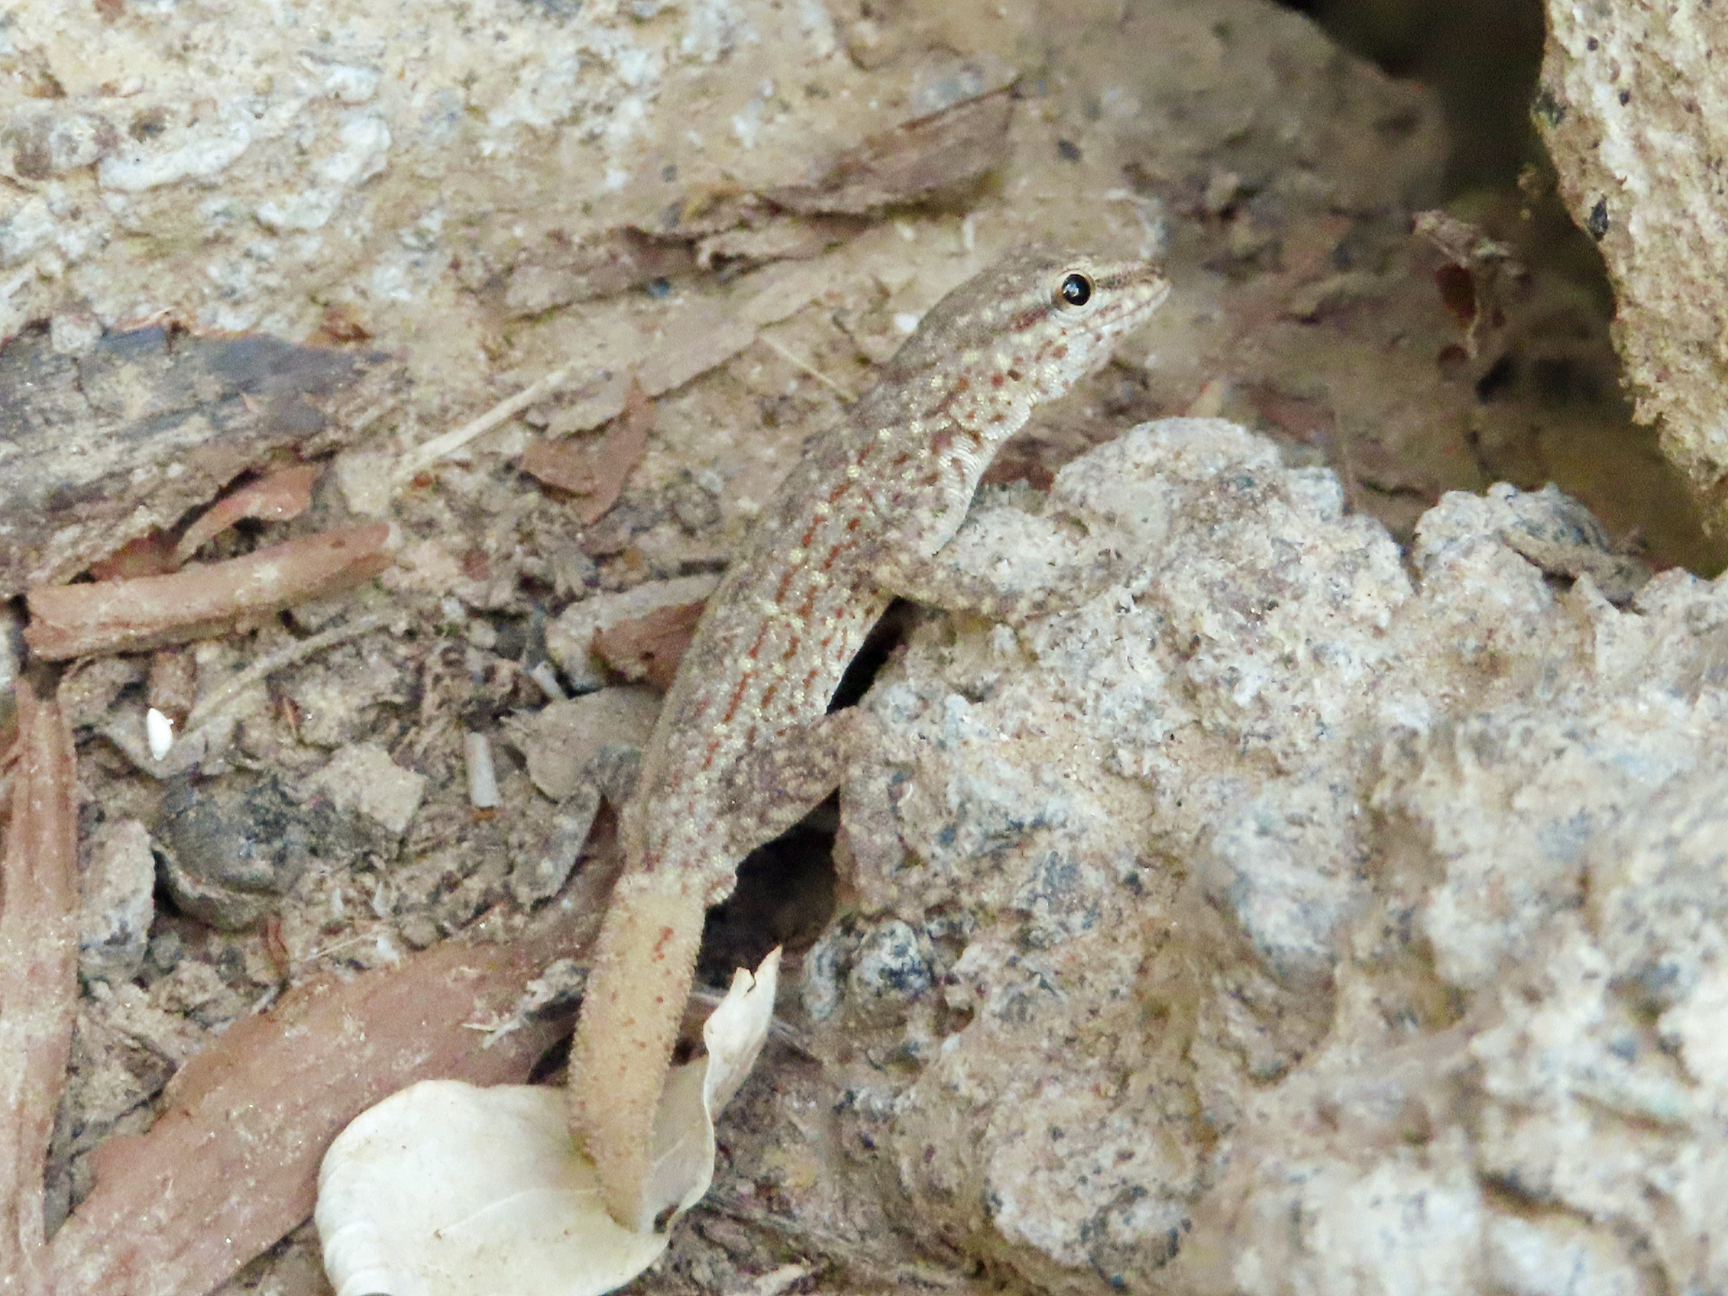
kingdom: Animalia
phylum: Chordata
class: Squamata
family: Sphaerodactylidae
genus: Pristurus
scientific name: Pristurus rupestris
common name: Blanford’s semaphore gecko
